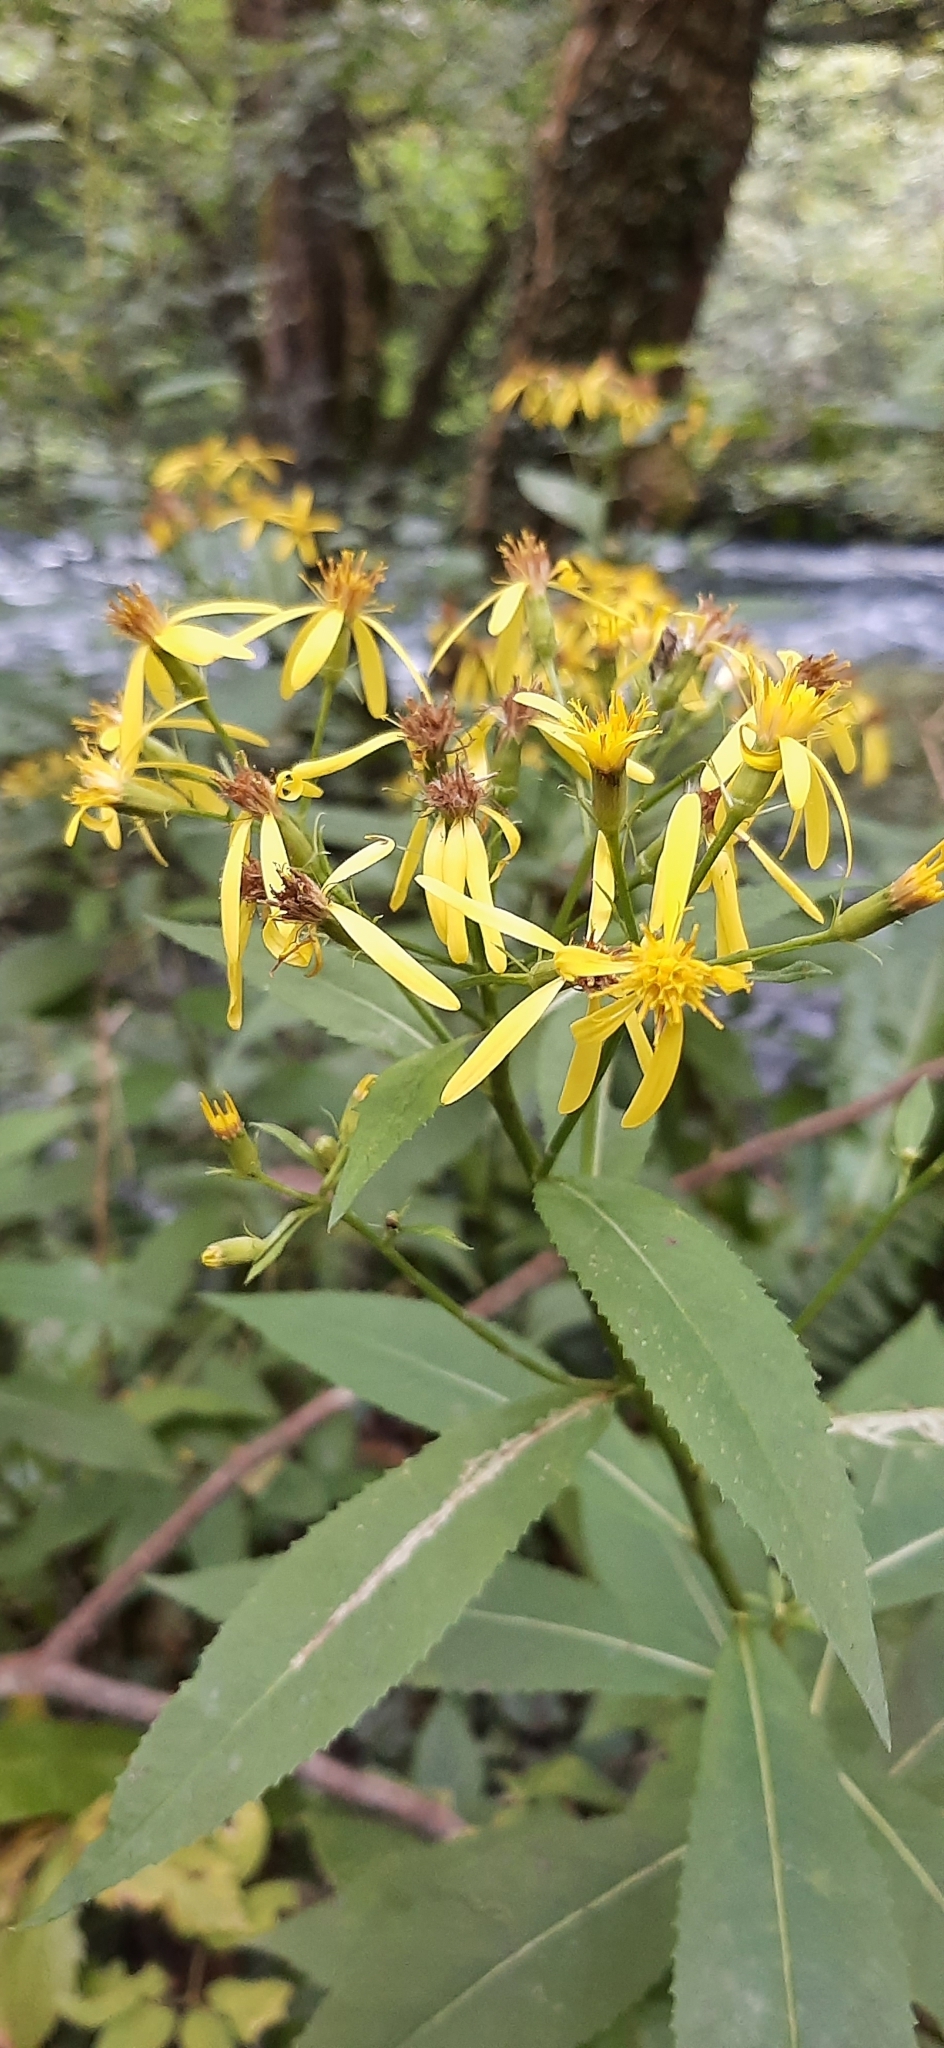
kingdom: Plantae
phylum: Tracheophyta
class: Magnoliopsida
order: Asterales
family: Asteraceae
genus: Senecio
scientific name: Senecio ovatus
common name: Wood ragwort
